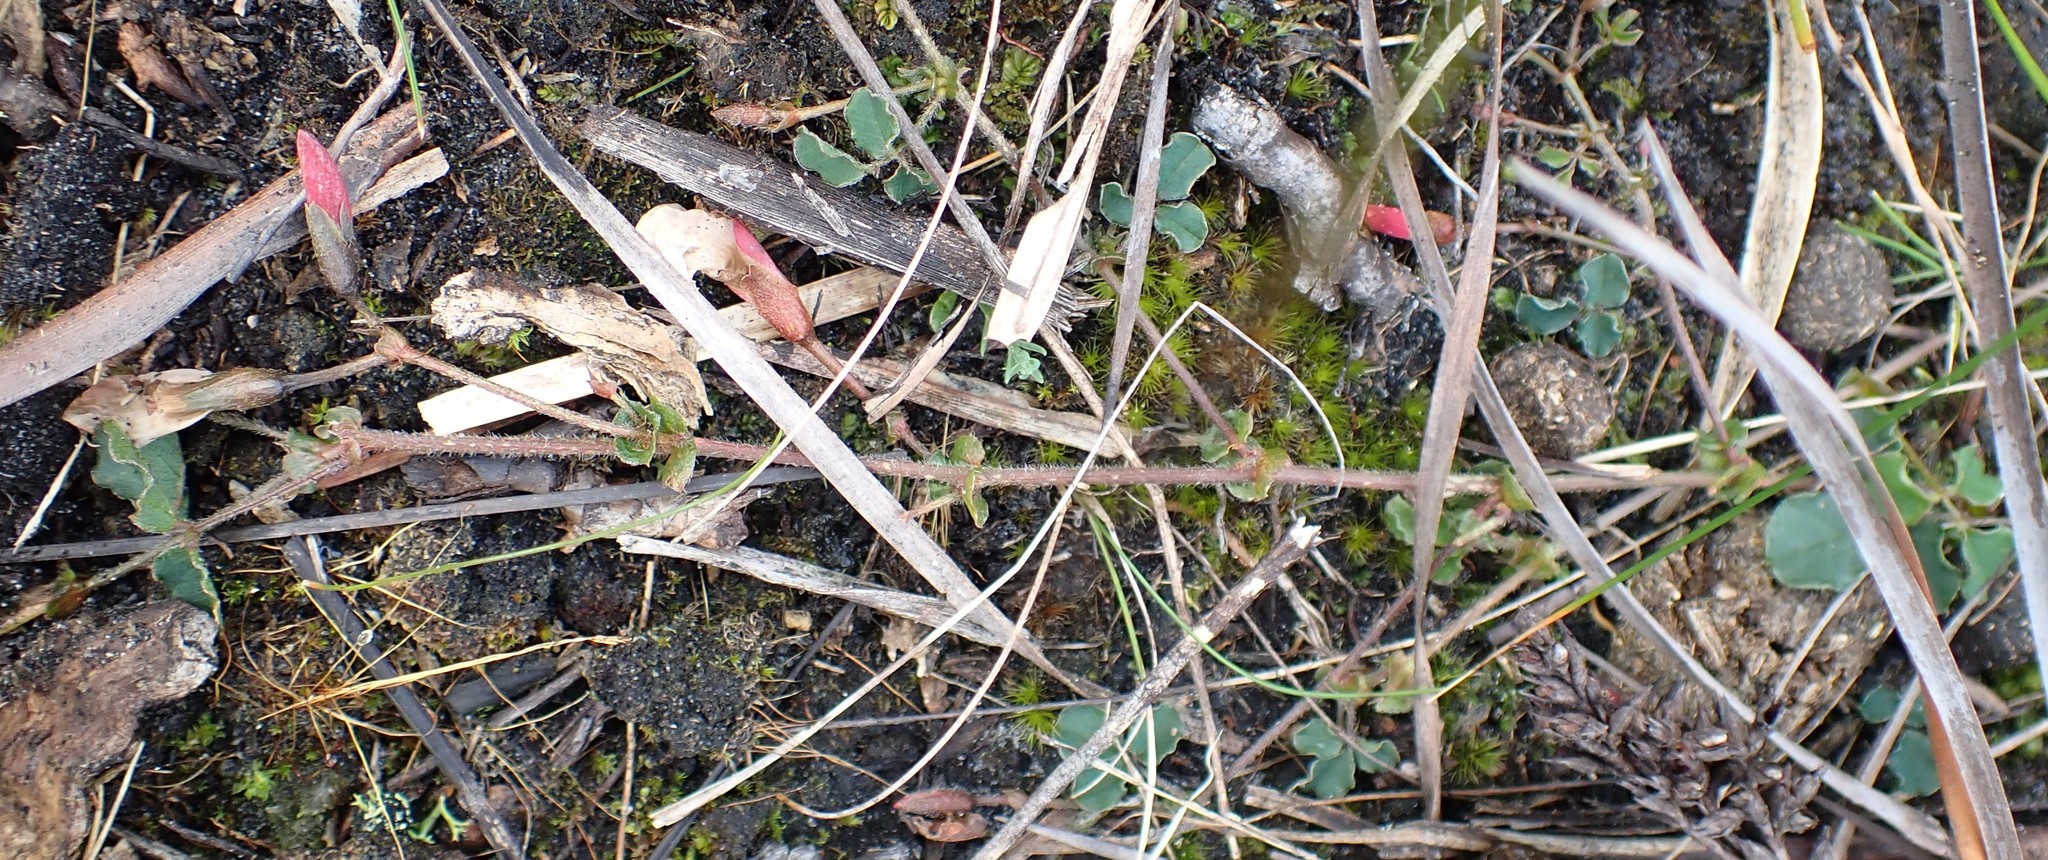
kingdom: Plantae
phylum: Tracheophyta
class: Magnoliopsida
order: Fabales
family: Fabaceae
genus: Kennedia
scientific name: Kennedia prostrata
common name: Running-postman
